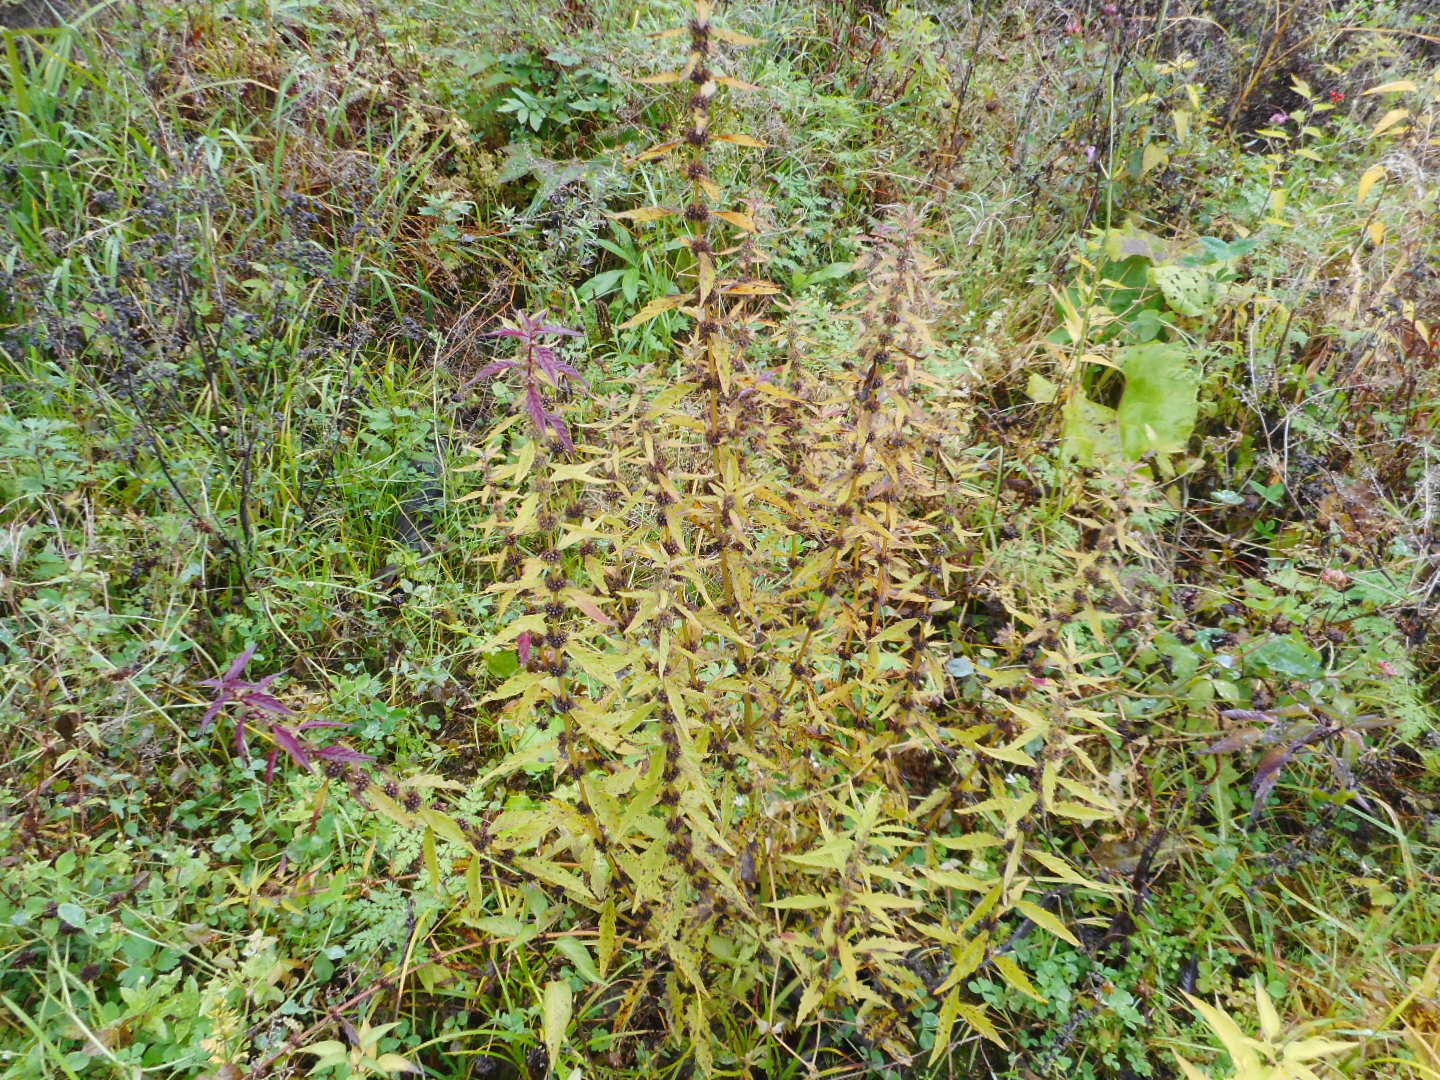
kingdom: Plantae
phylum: Tracheophyta
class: Magnoliopsida
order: Lamiales
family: Lamiaceae
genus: Lycopus
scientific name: Lycopus europaeus
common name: European bugleweed
